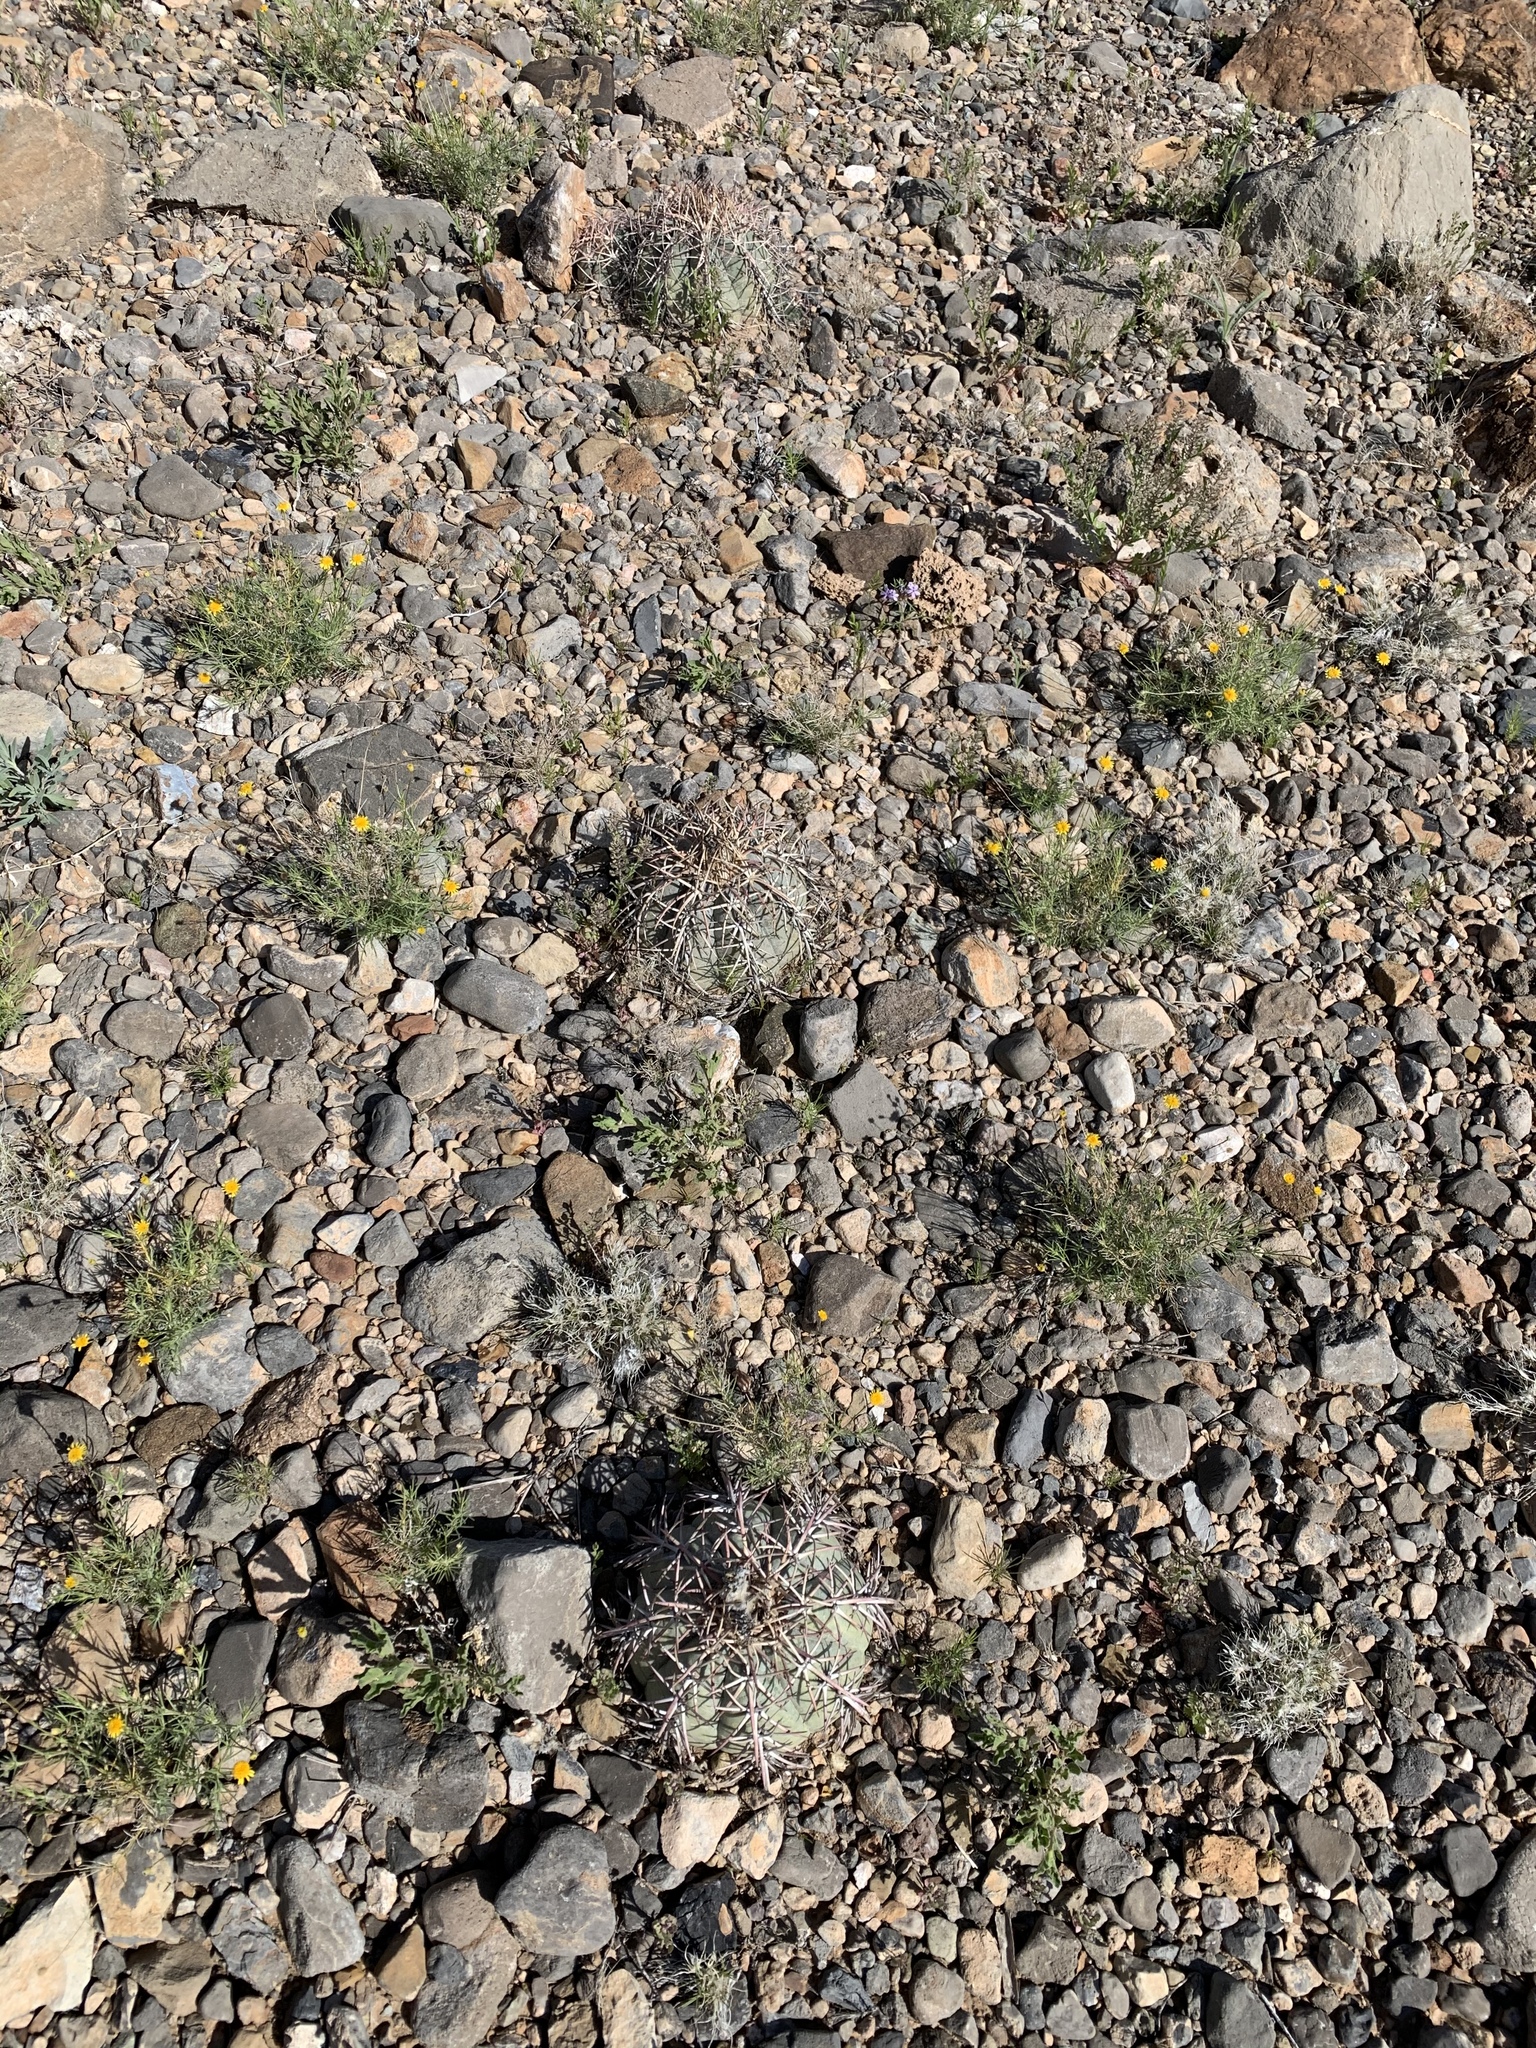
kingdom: Plantae
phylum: Tracheophyta
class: Magnoliopsida
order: Caryophyllales
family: Cactaceae
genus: Echinocactus
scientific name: Echinocactus horizonthalonius
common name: Devilshead
